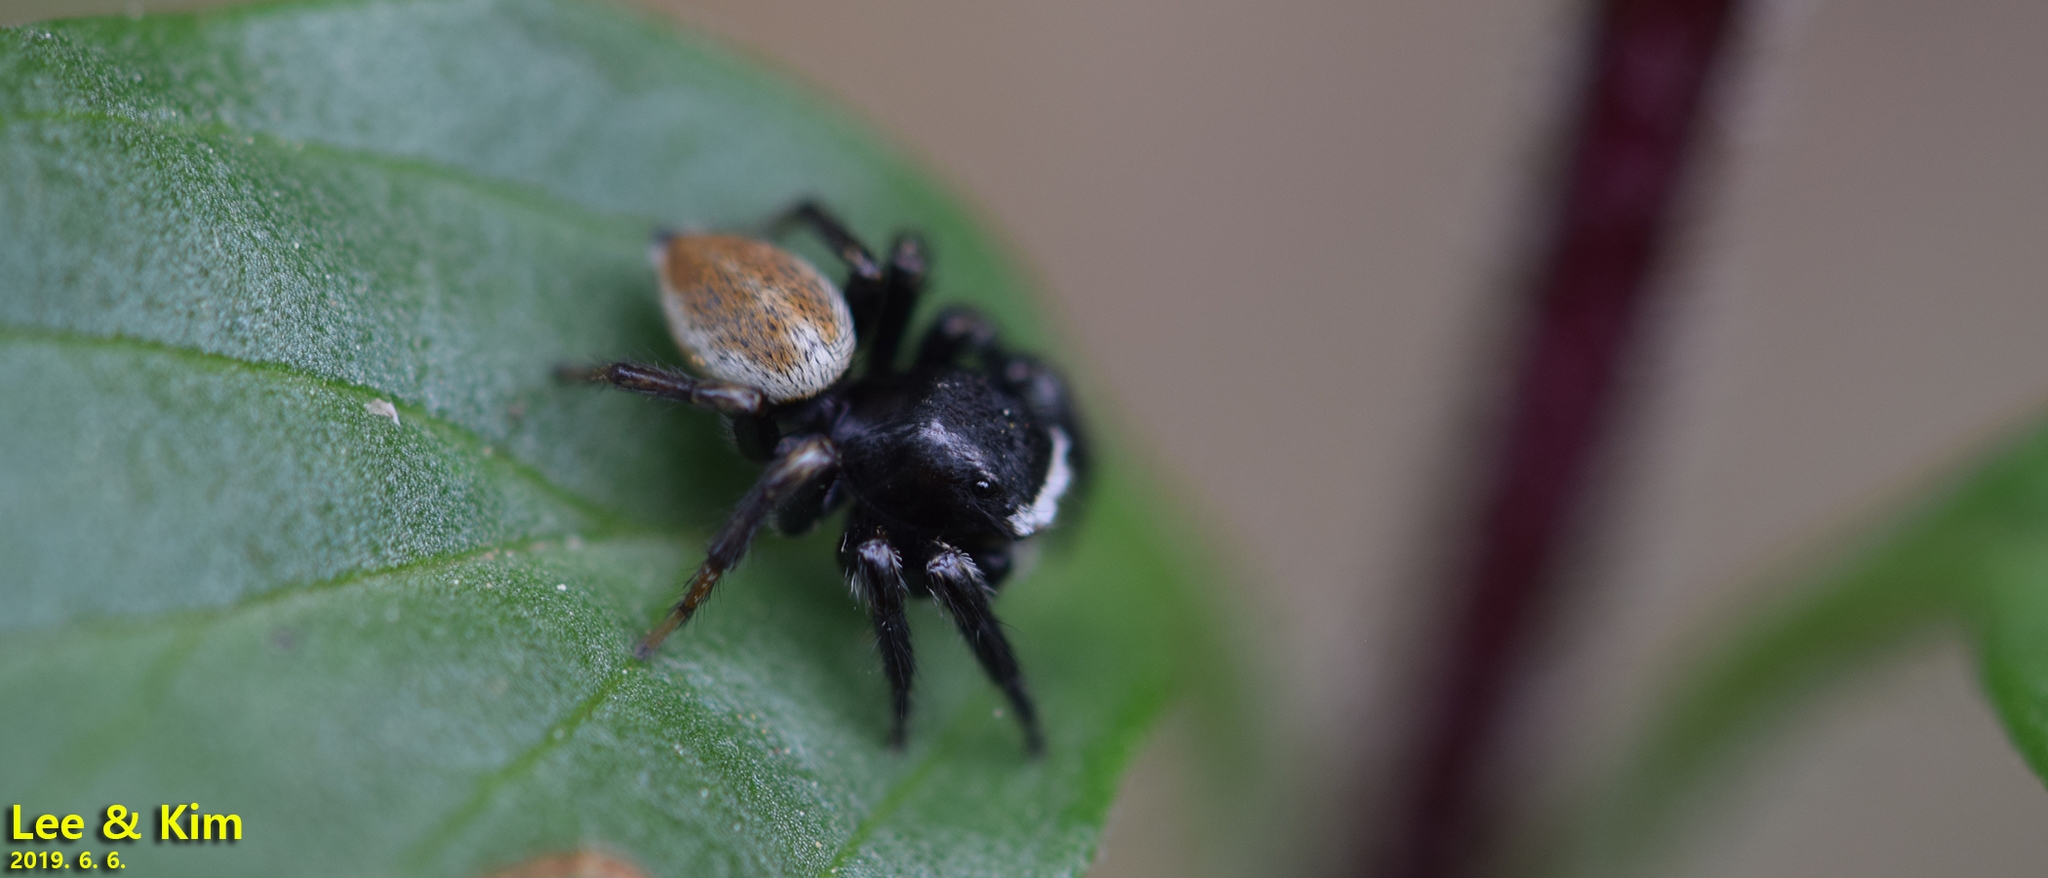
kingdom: Animalia
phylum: Arthropoda
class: Arachnida
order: Araneae
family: Salticidae
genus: Evarcha
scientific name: Evarcha albaria
